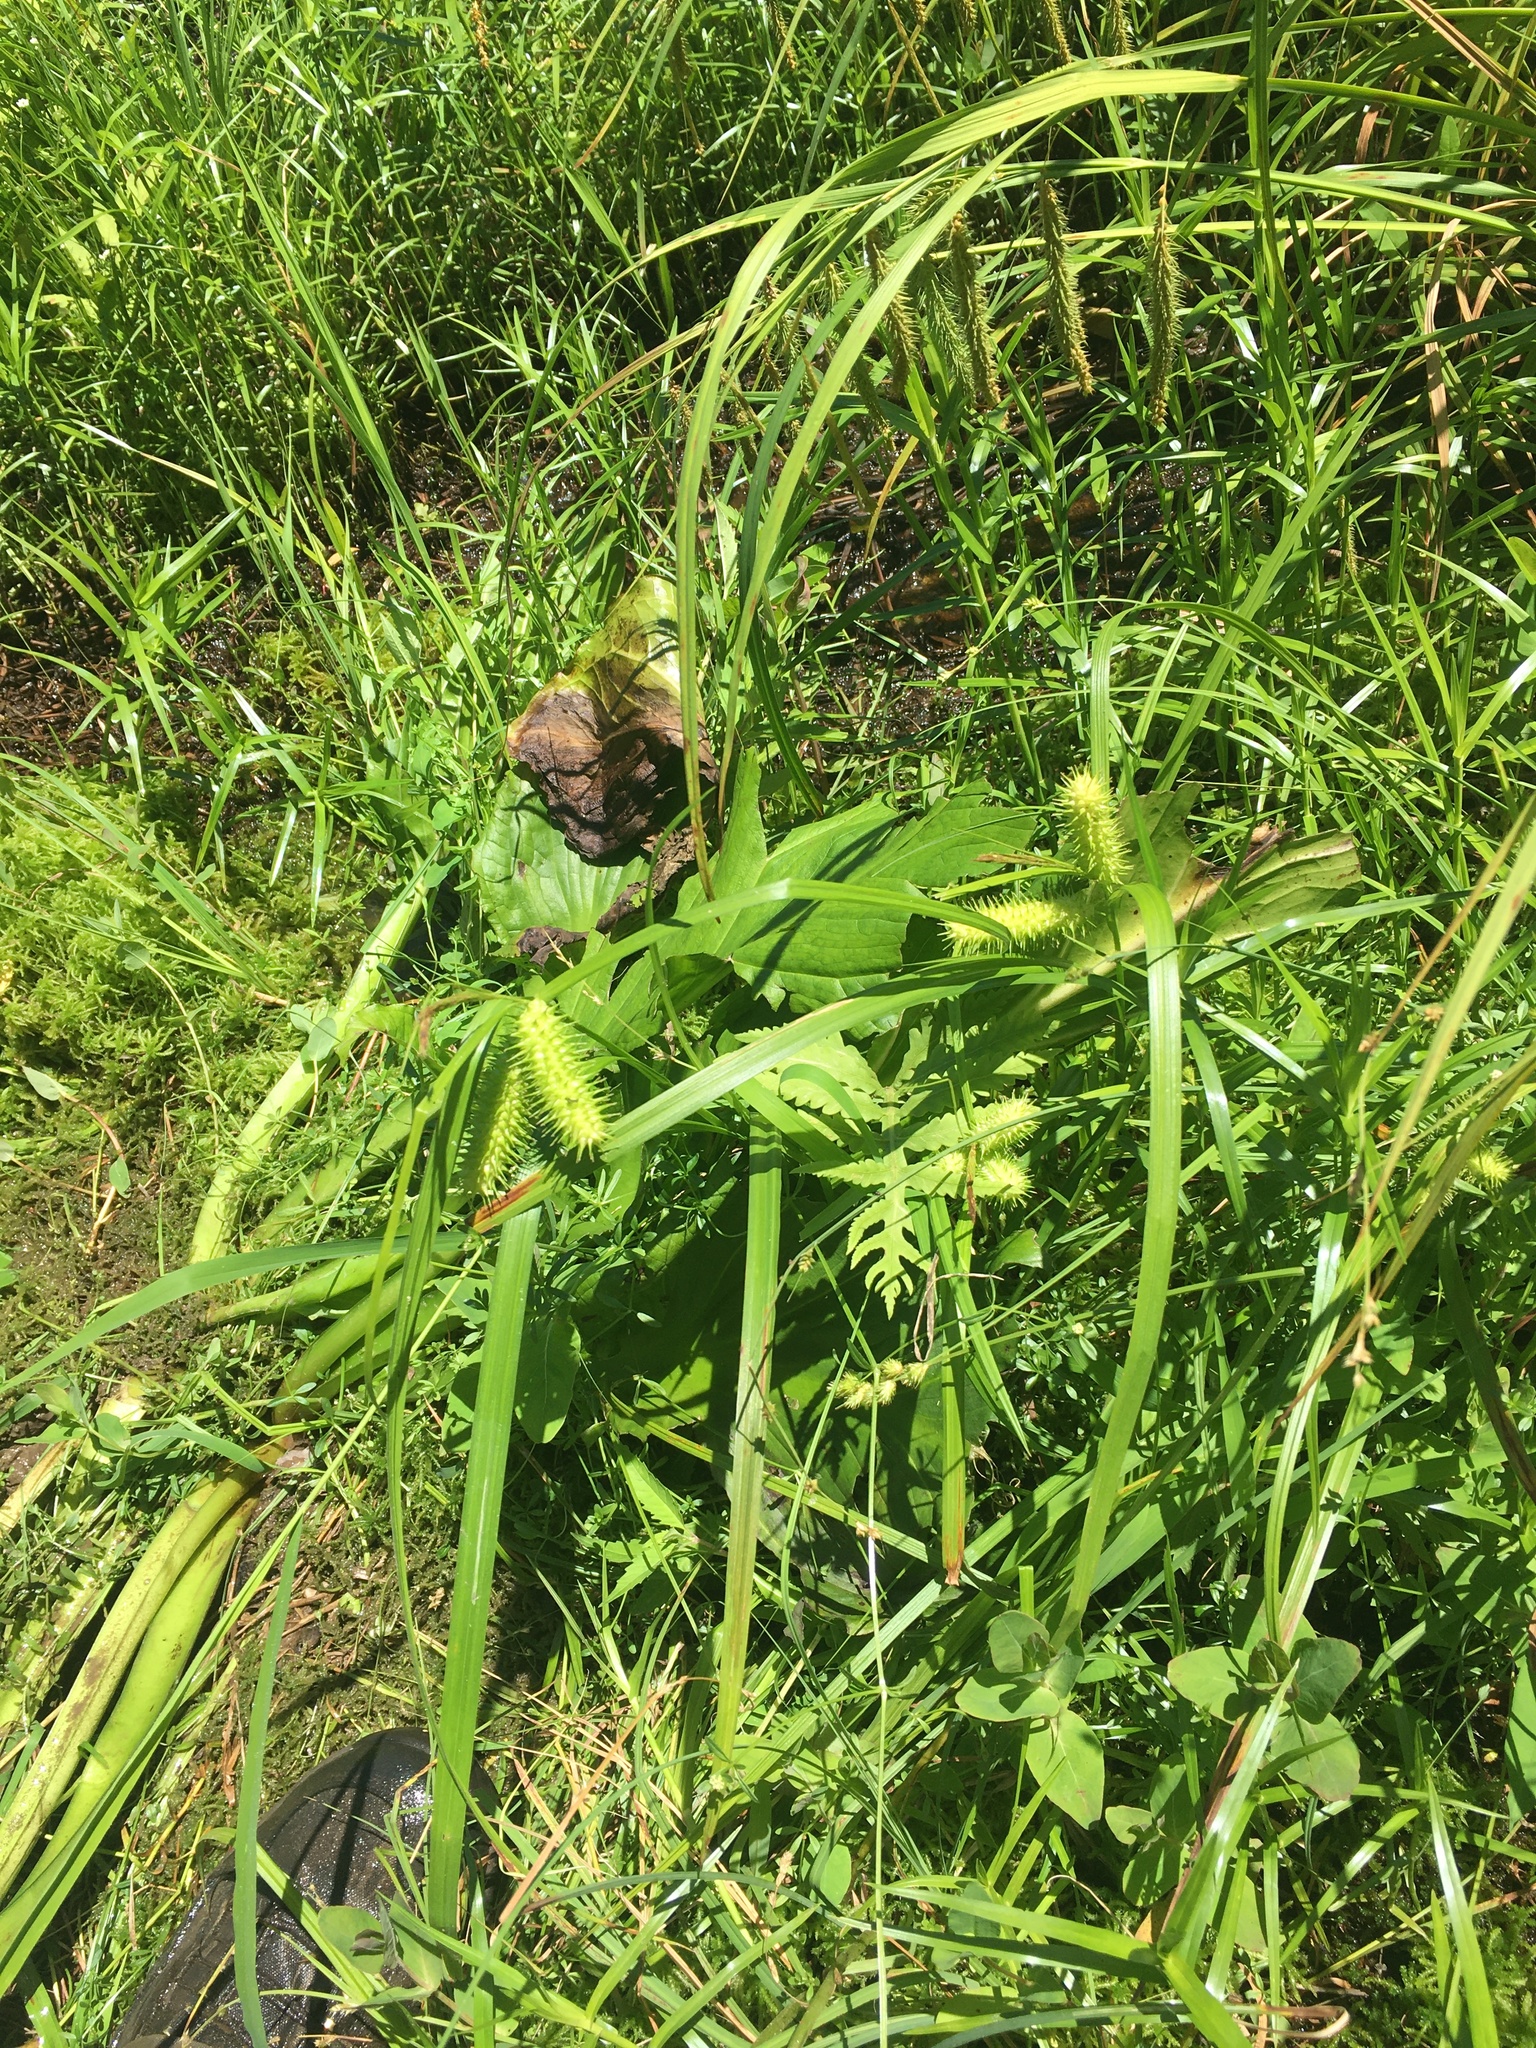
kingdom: Plantae
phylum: Tracheophyta
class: Liliopsida
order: Poales
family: Cyperaceae
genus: Carex
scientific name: Carex lurida
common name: Sallow sedge
